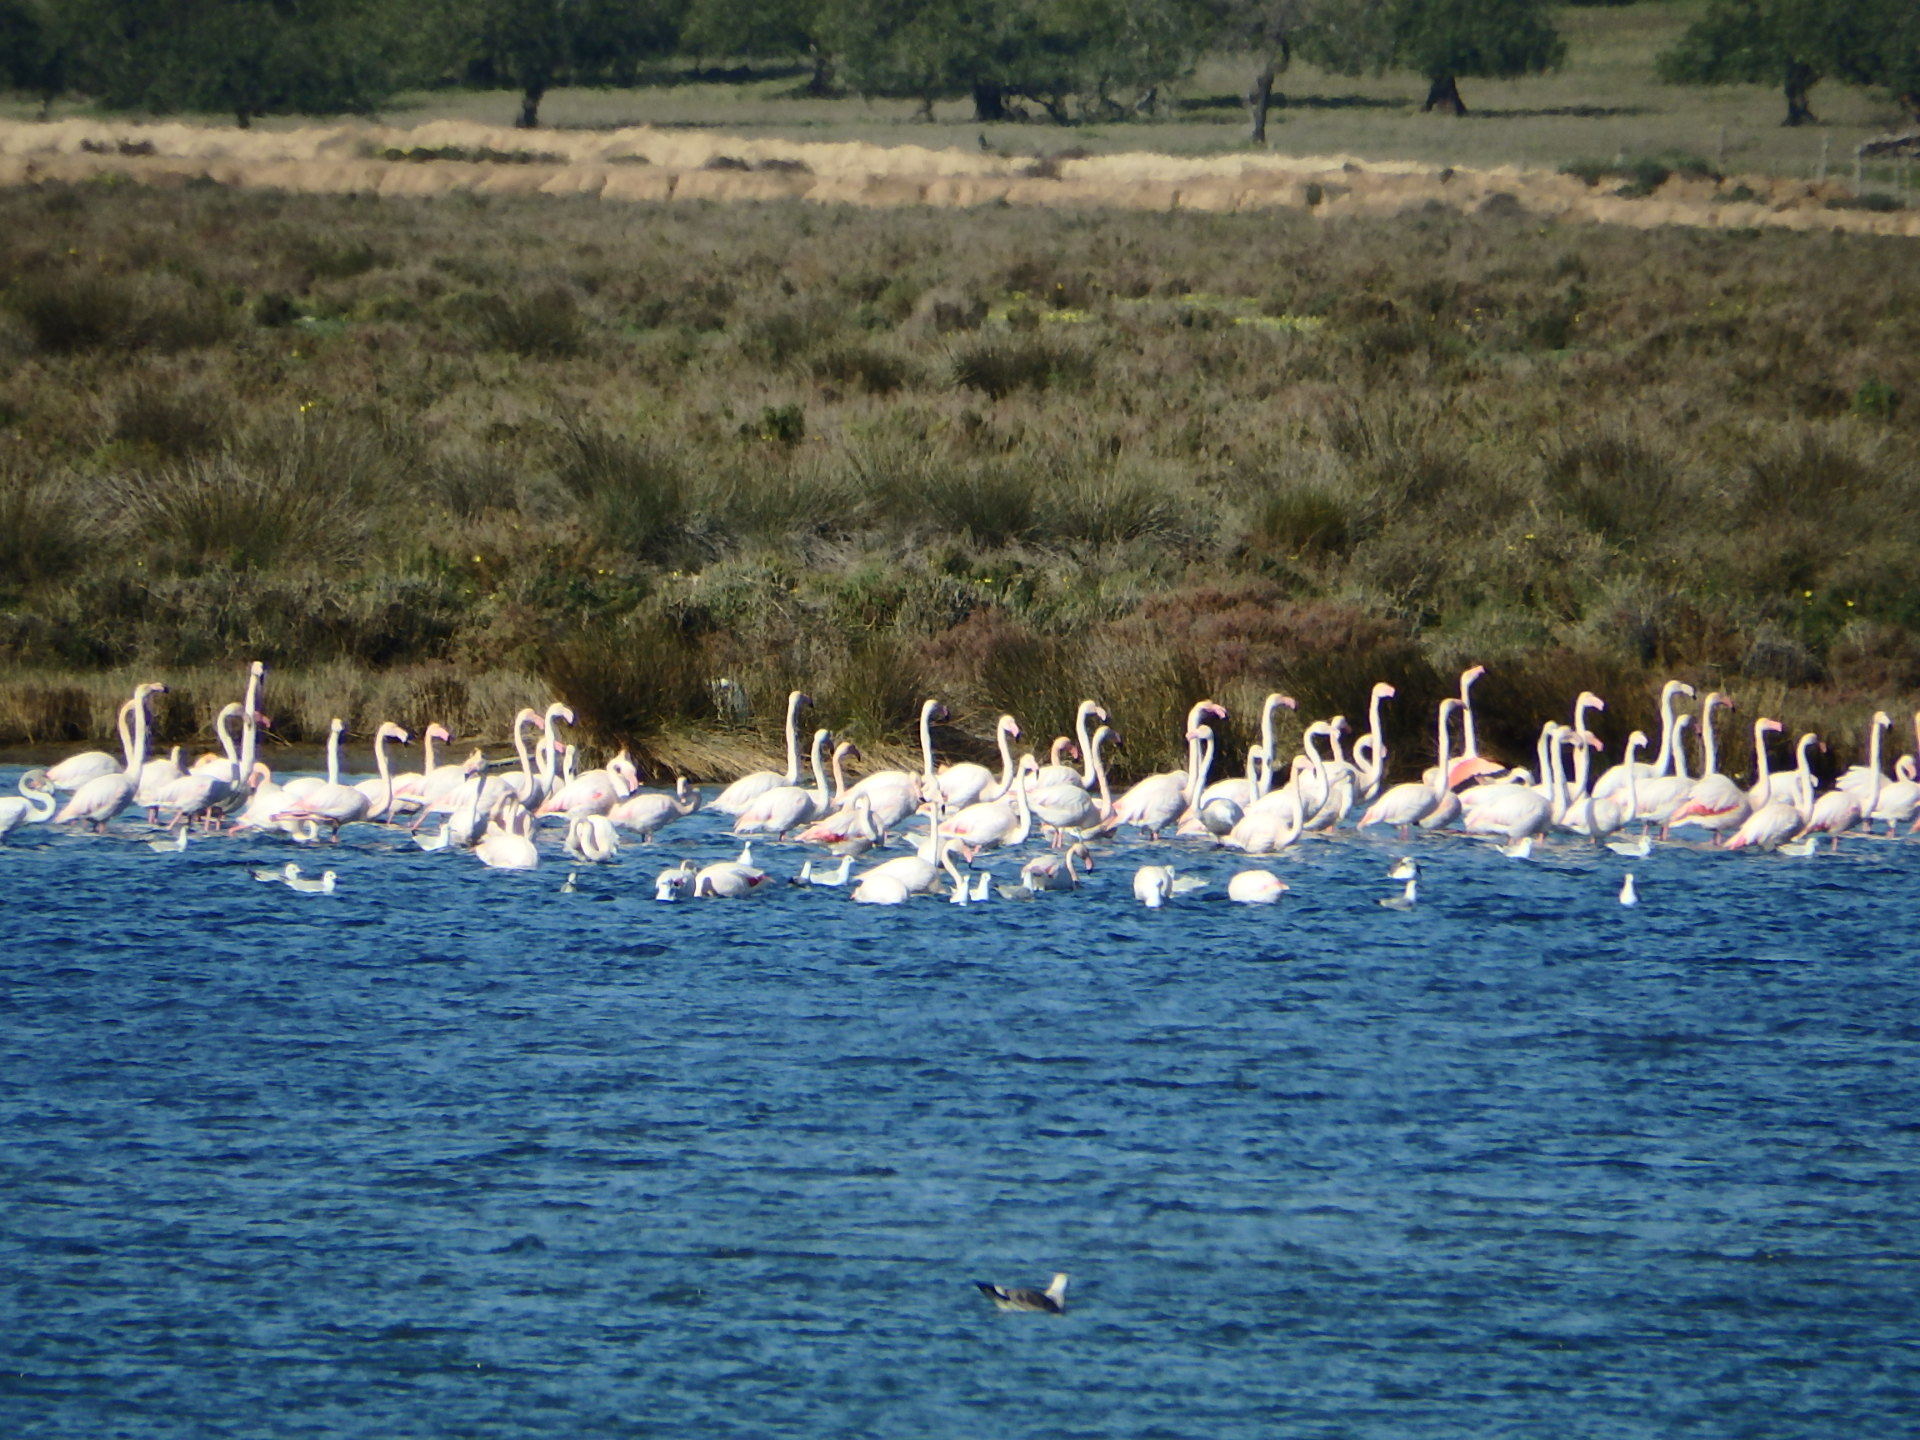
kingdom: Animalia
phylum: Chordata
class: Aves
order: Phoenicopteriformes
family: Phoenicopteridae
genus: Phoenicopterus
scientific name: Phoenicopterus roseus
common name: Greater flamingo
